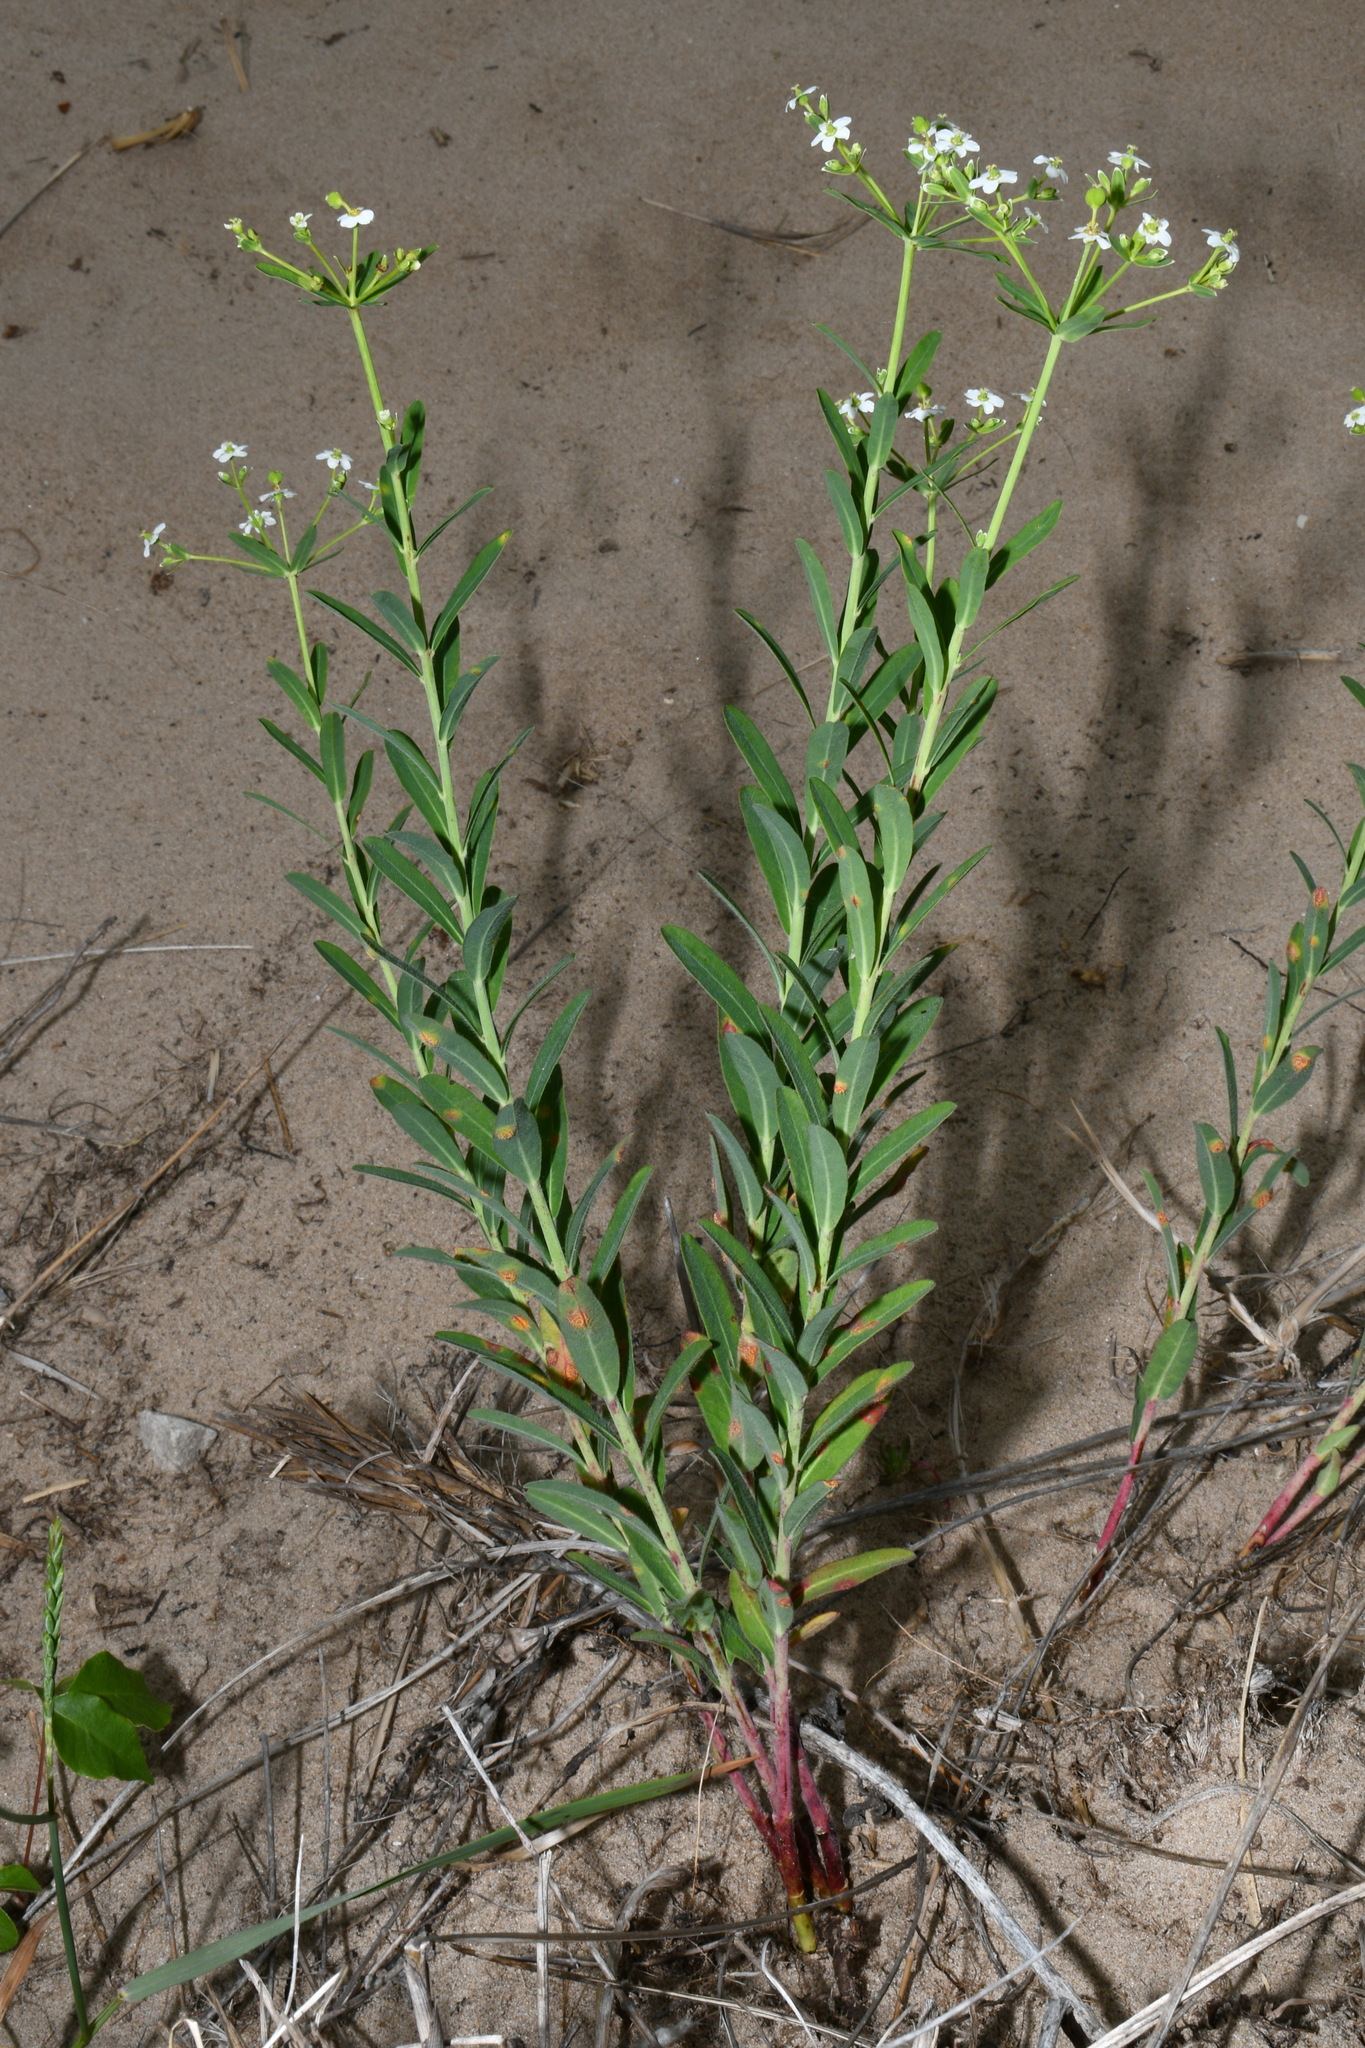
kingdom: Plantae
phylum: Tracheophyta
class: Magnoliopsida
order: Malpighiales
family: Euphorbiaceae
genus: Euphorbia
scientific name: Euphorbia corollata
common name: Flowering spurge
